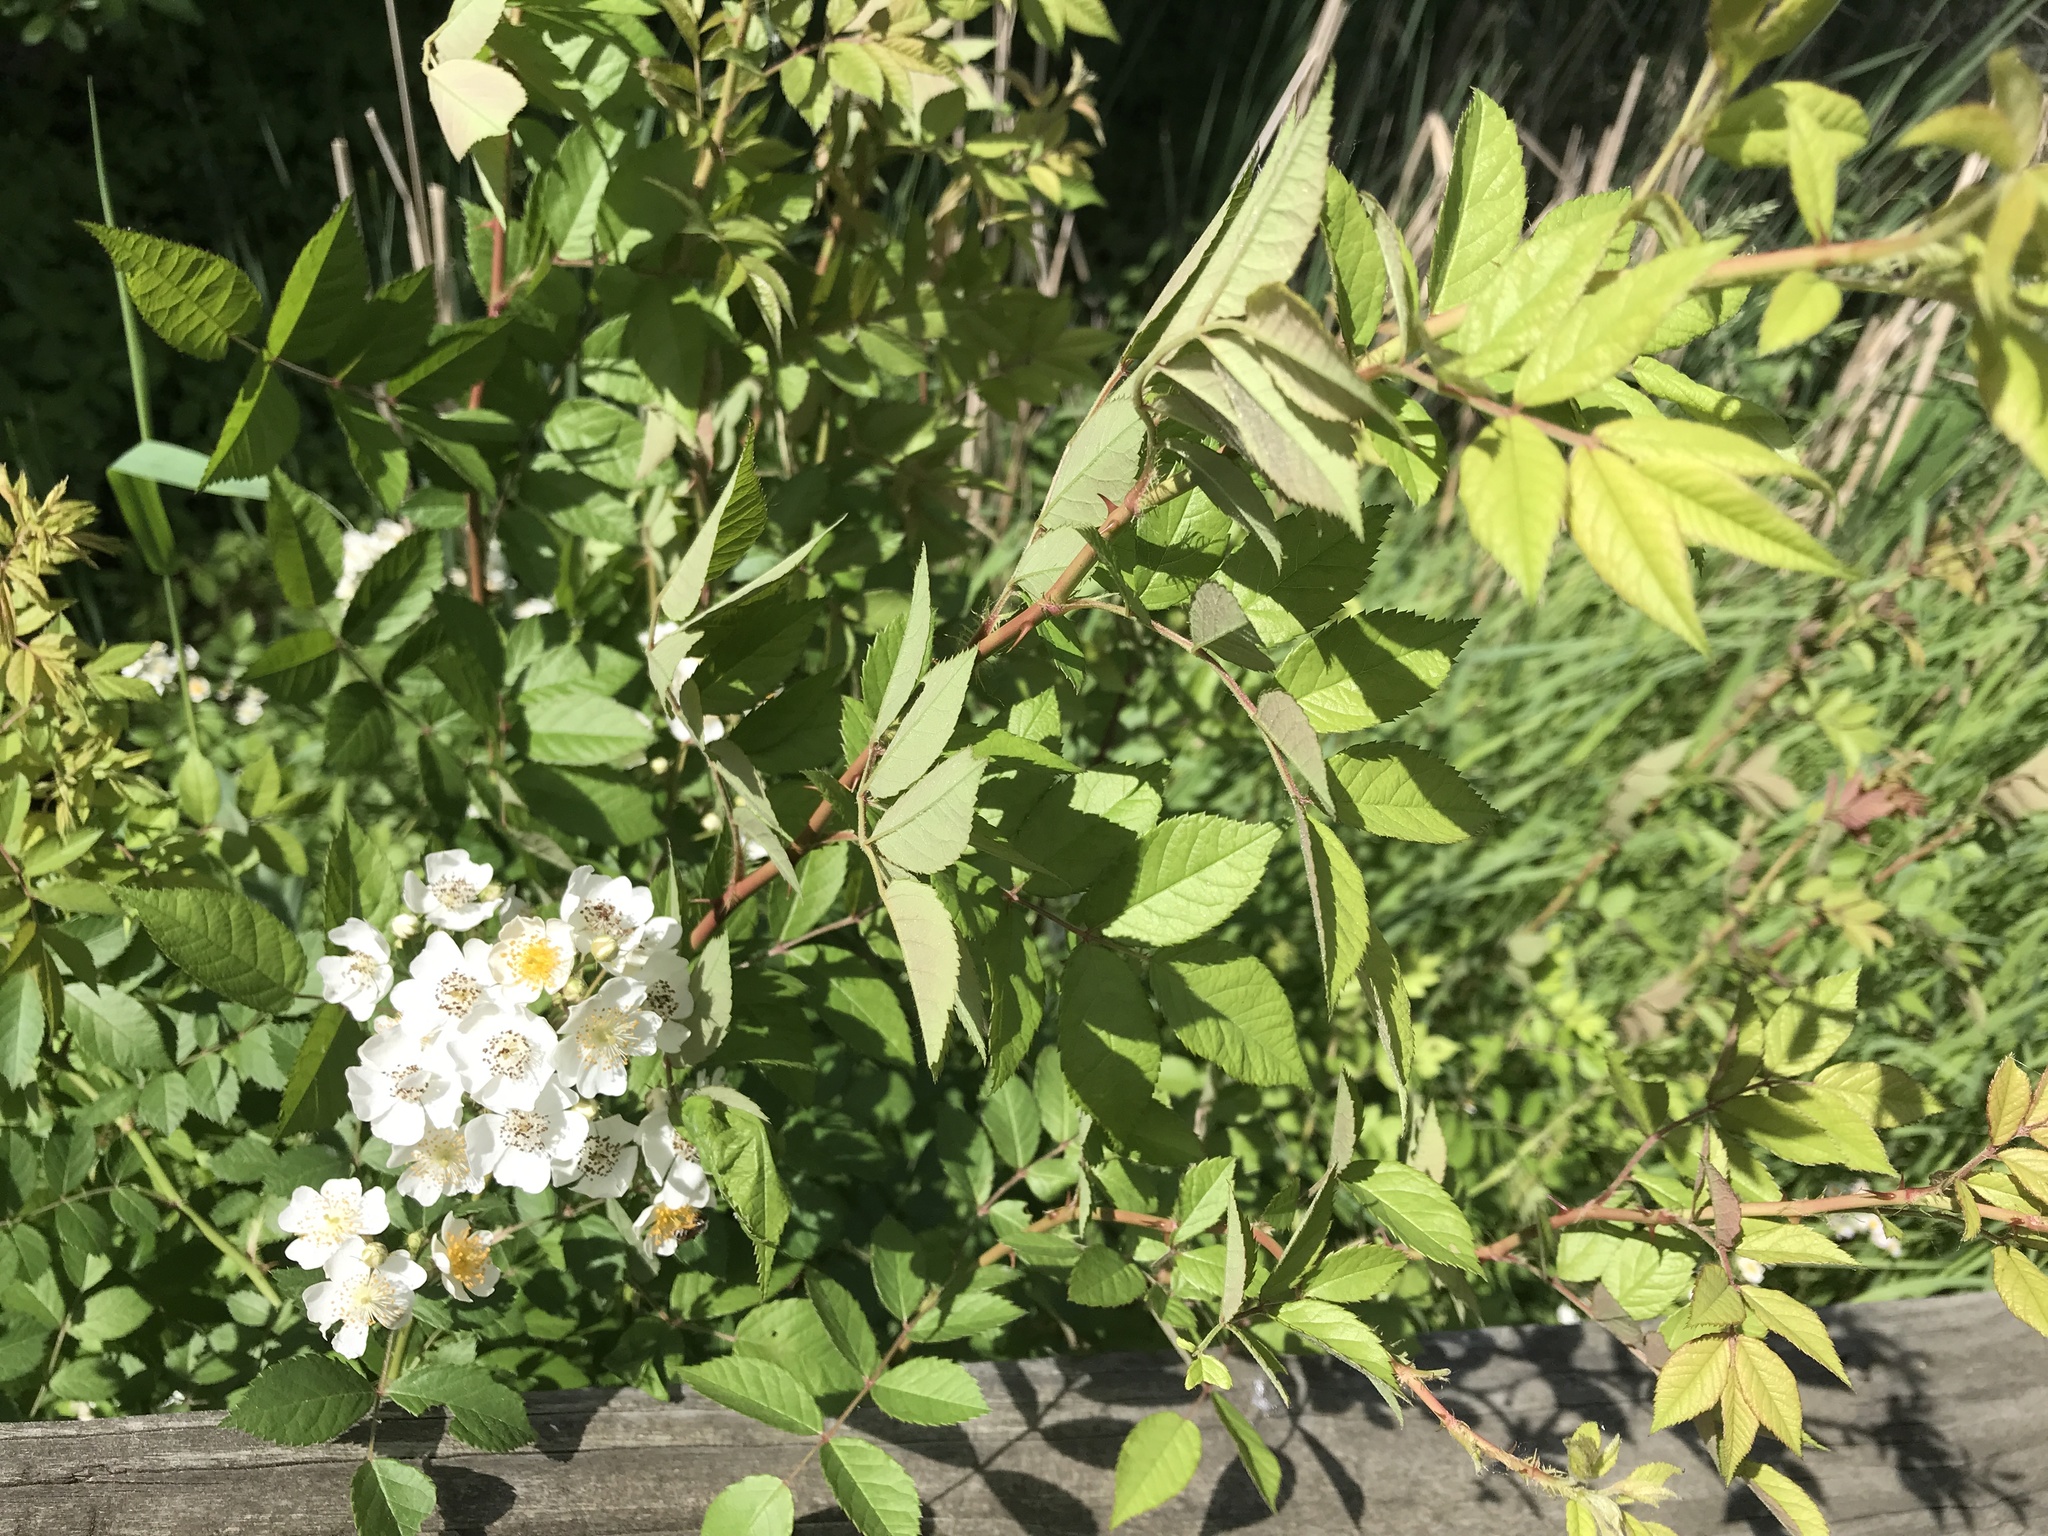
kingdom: Plantae
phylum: Tracheophyta
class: Magnoliopsida
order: Rosales
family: Rosaceae
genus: Rosa
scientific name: Rosa multiflora
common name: Multiflora rose
